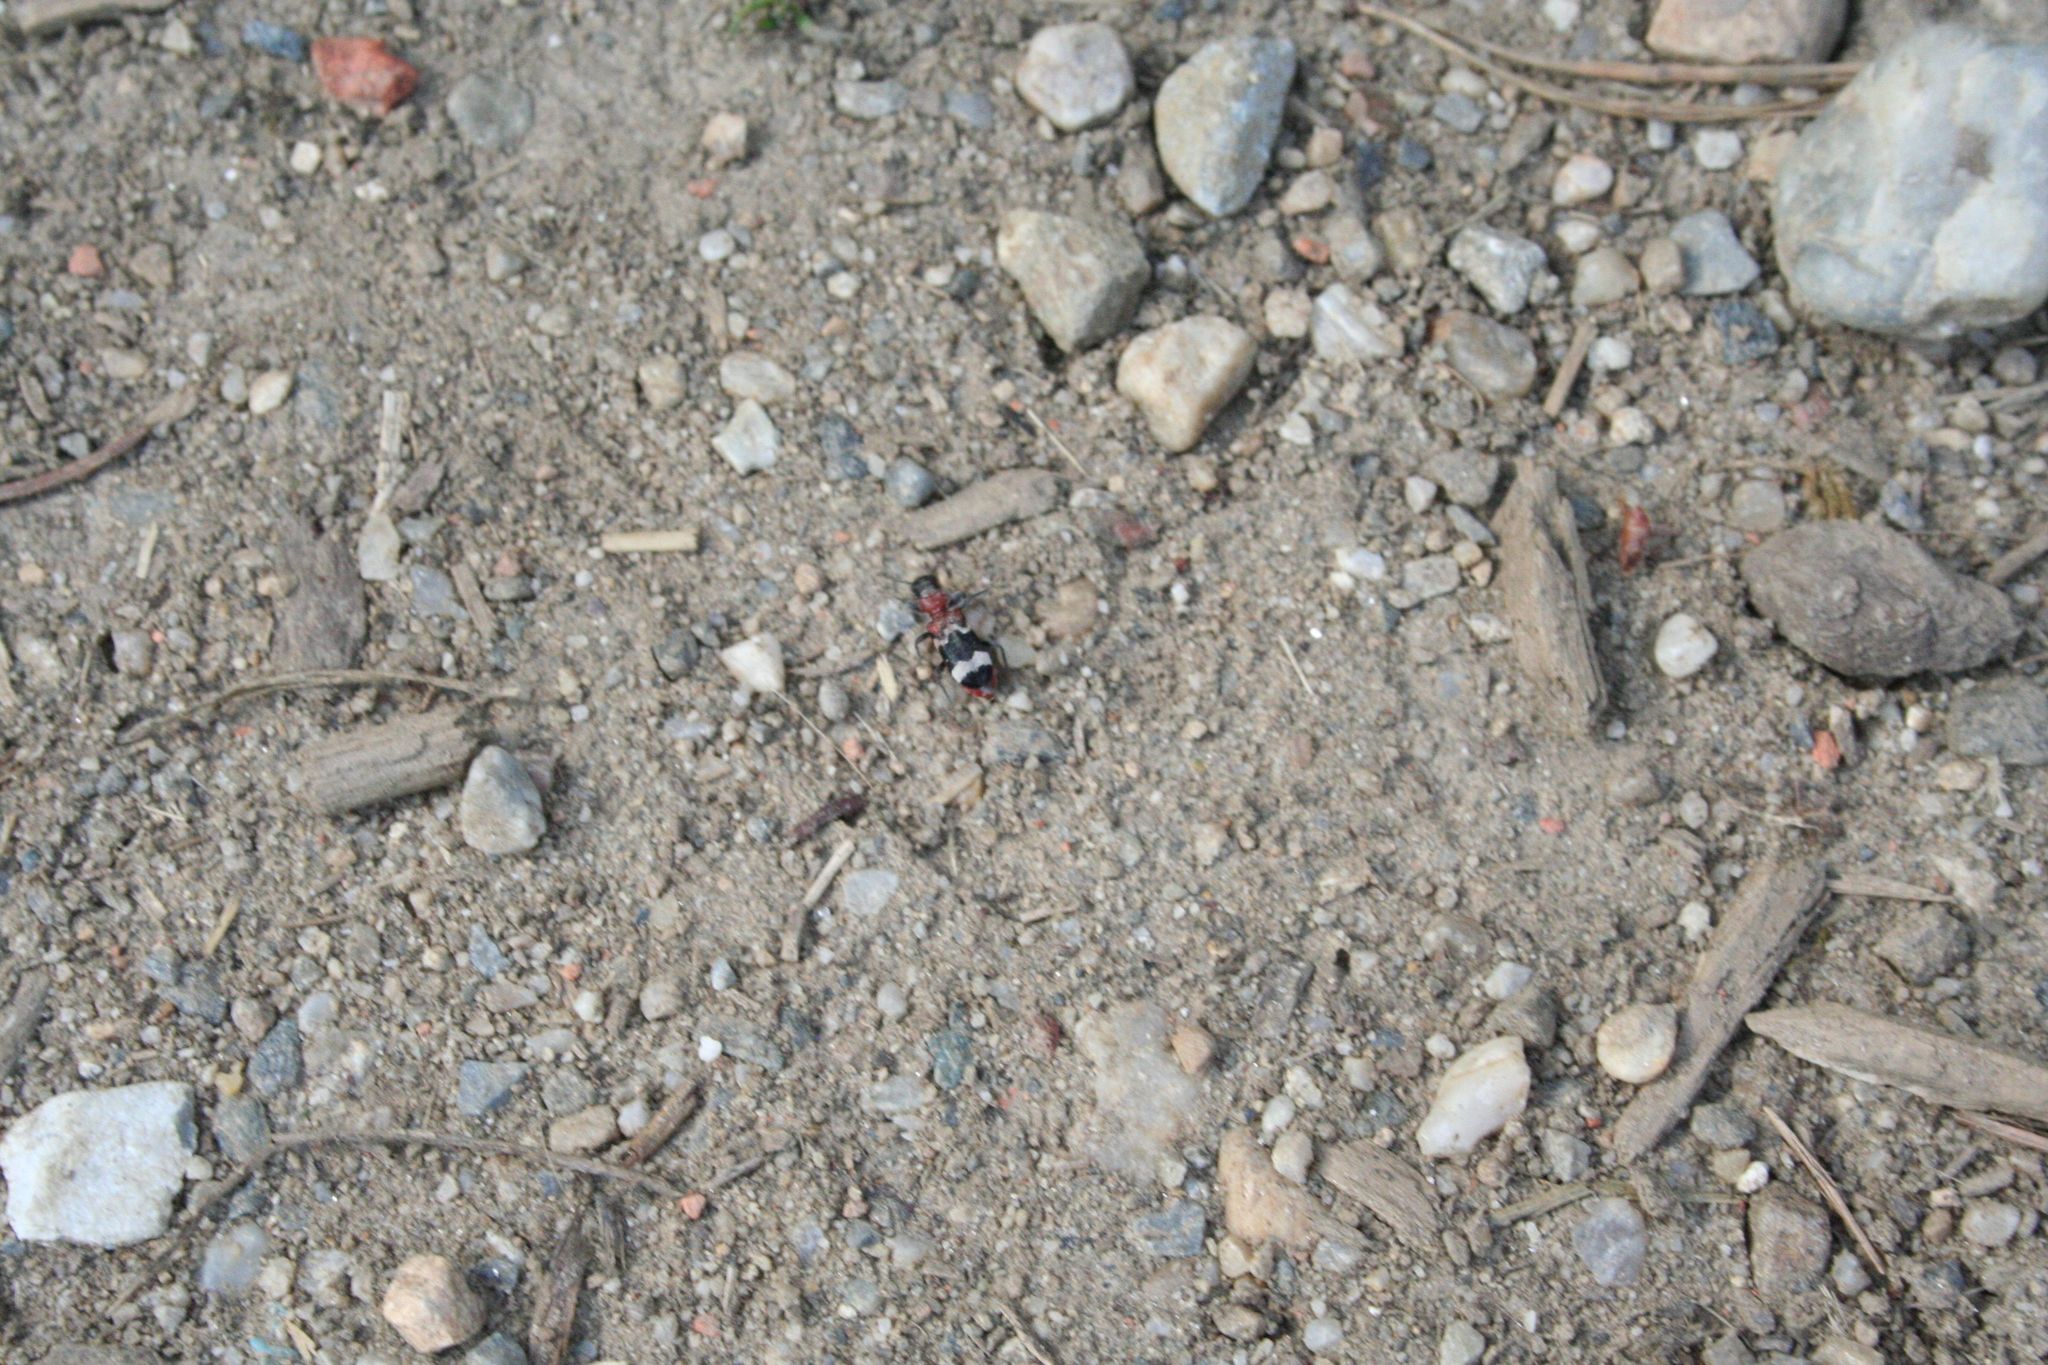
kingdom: Animalia
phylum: Arthropoda
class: Insecta
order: Coleoptera
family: Cleridae
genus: Thanasimus
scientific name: Thanasimus formicarius
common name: Ant beetle
